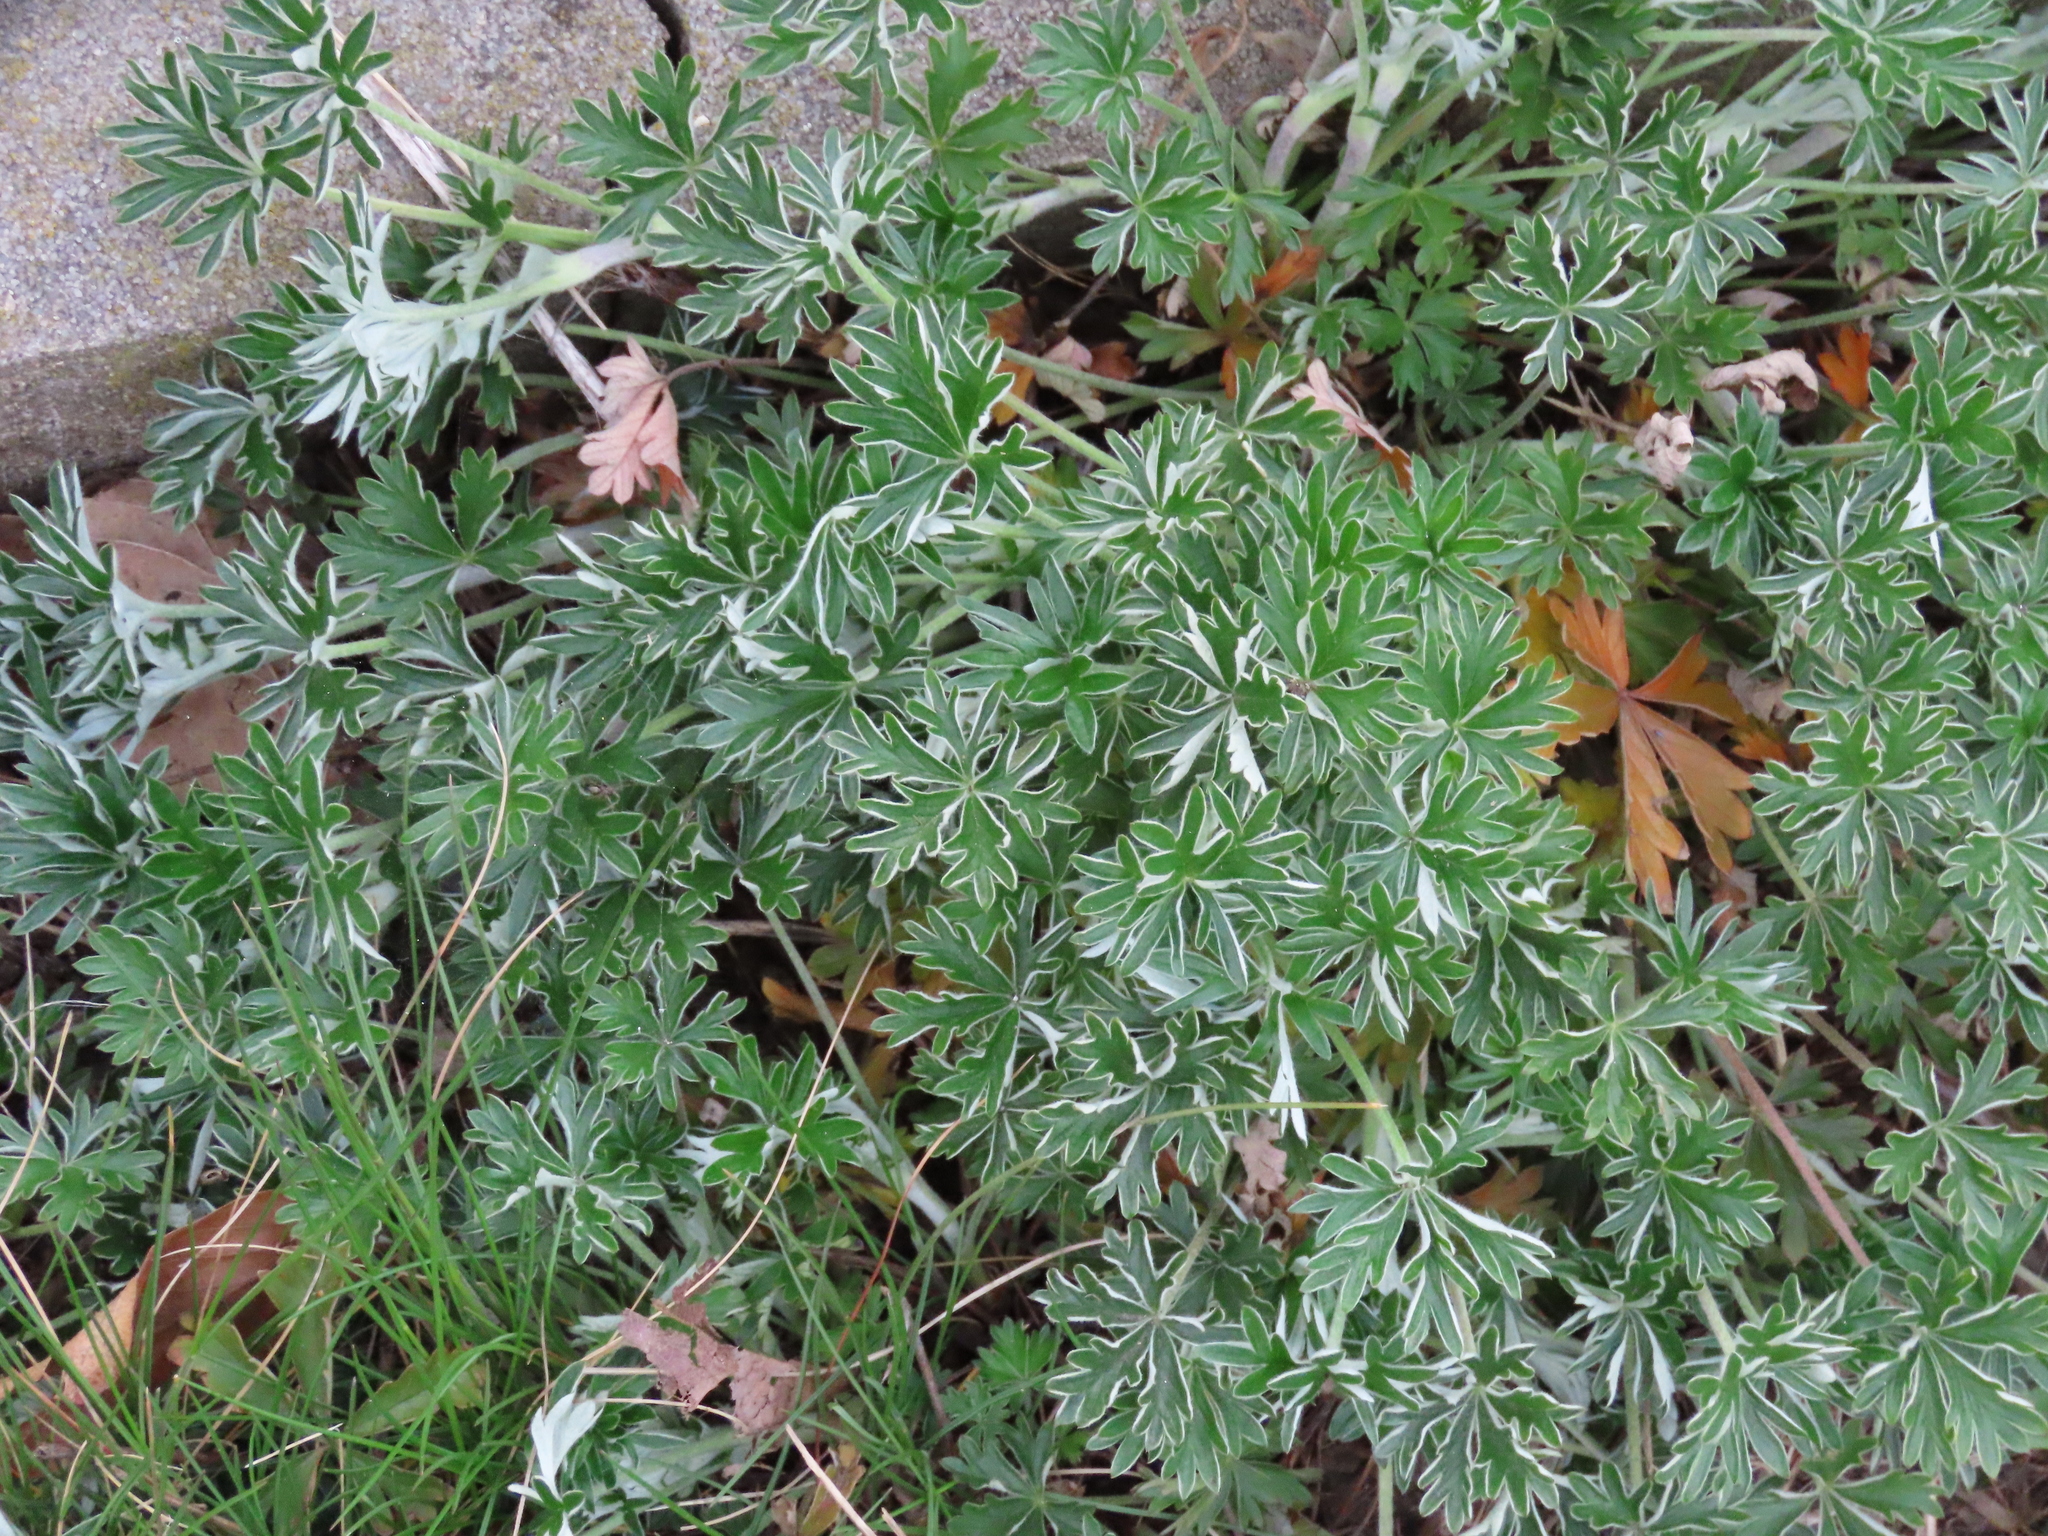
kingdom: Plantae
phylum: Tracheophyta
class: Magnoliopsida
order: Rosales
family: Rosaceae
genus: Potentilla
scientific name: Potentilla argentea
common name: Hoary cinquefoil
